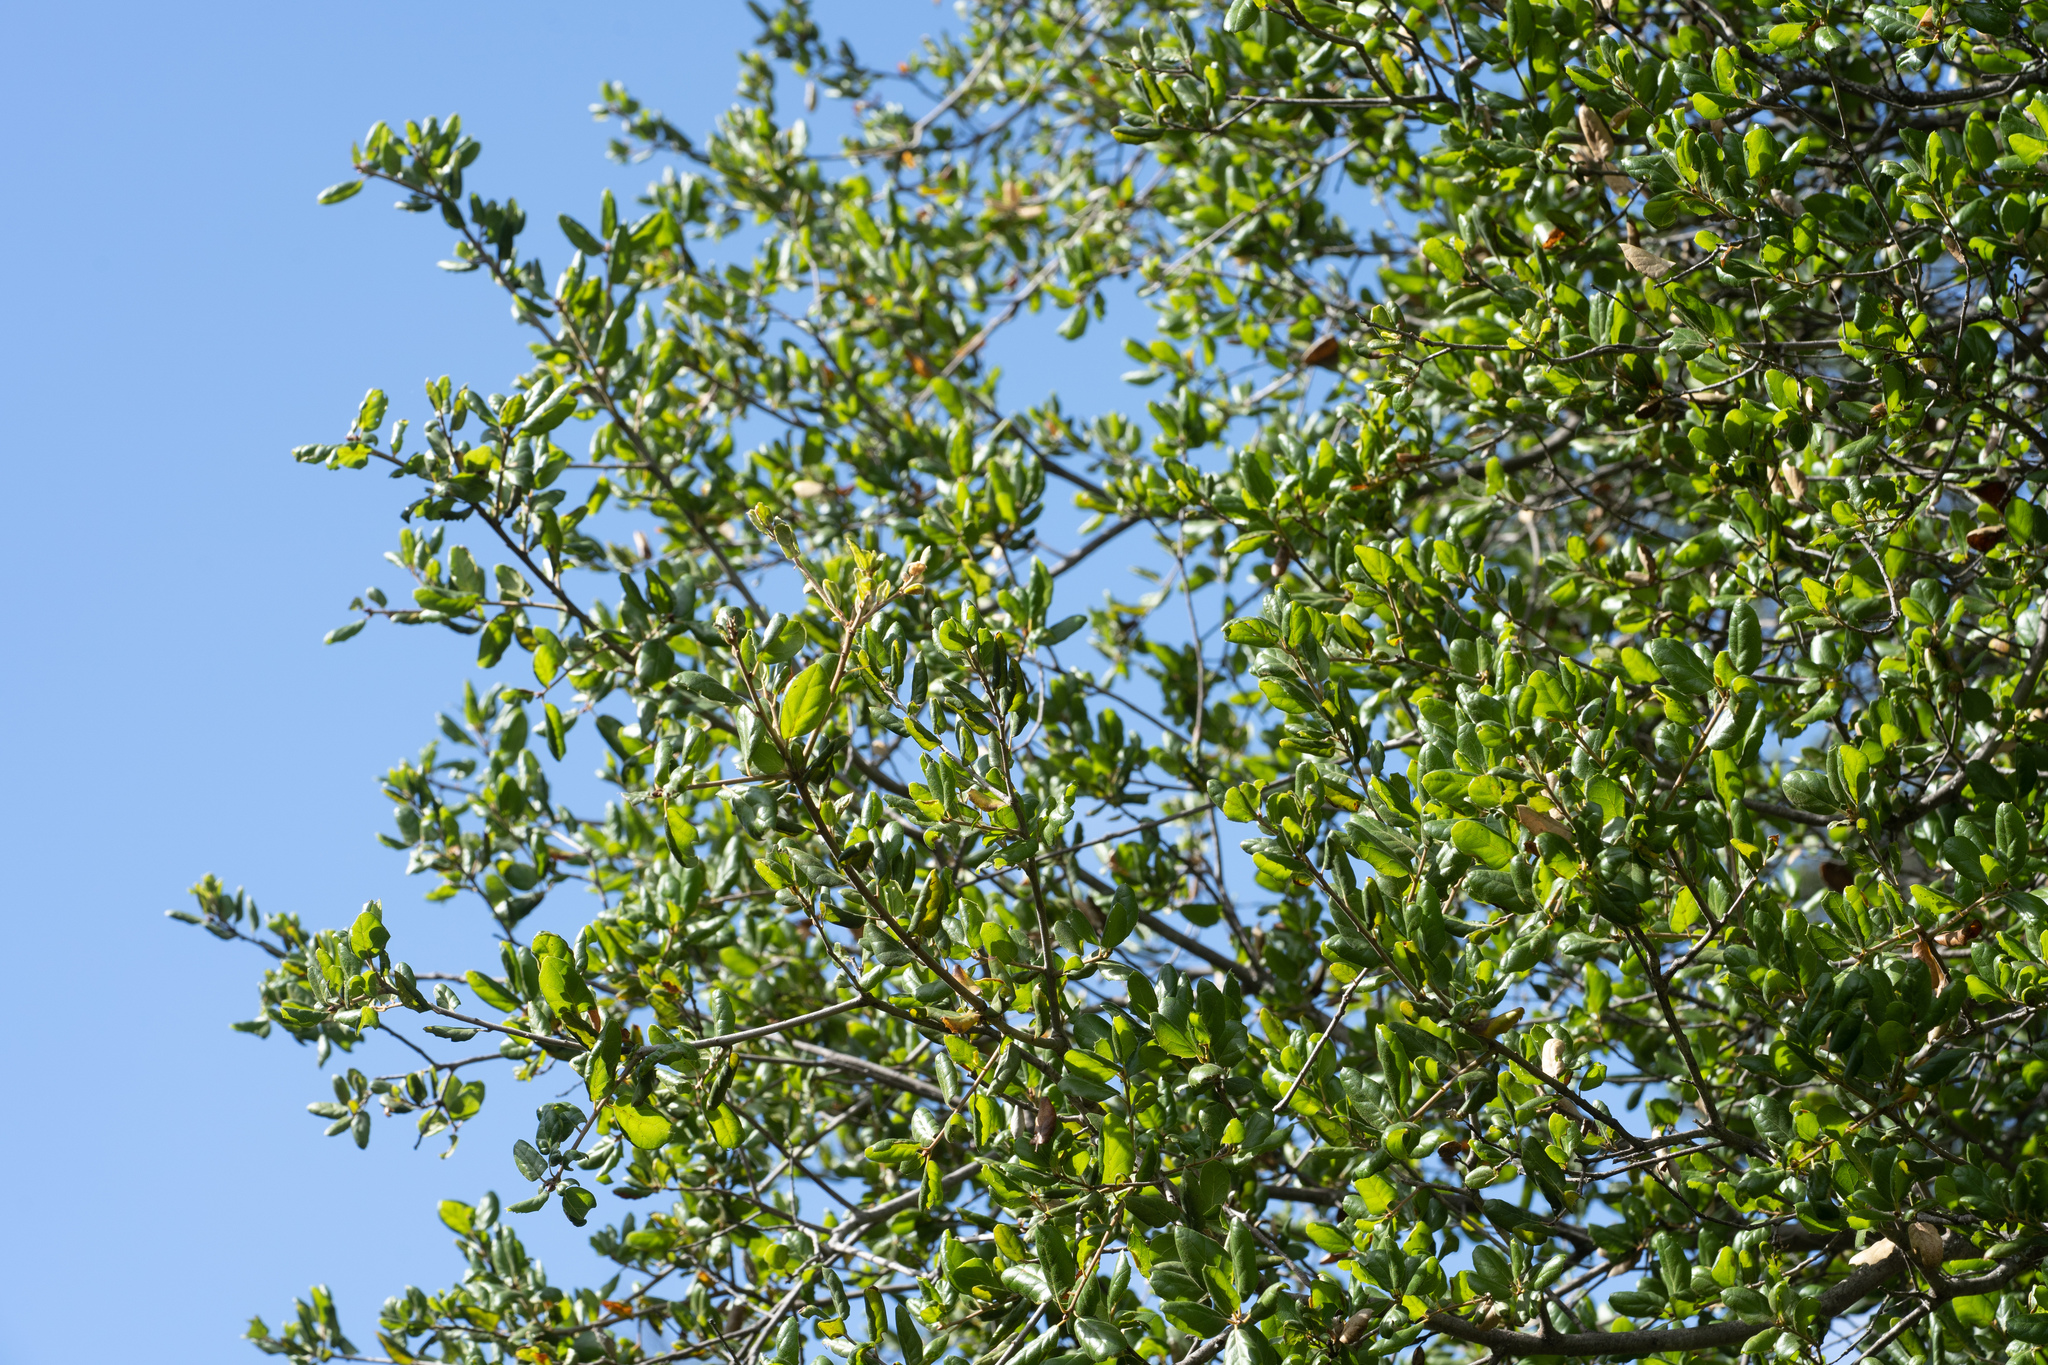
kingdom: Plantae
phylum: Tracheophyta
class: Magnoliopsida
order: Fagales
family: Fagaceae
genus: Quercus
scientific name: Quercus agrifolia
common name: California live oak
